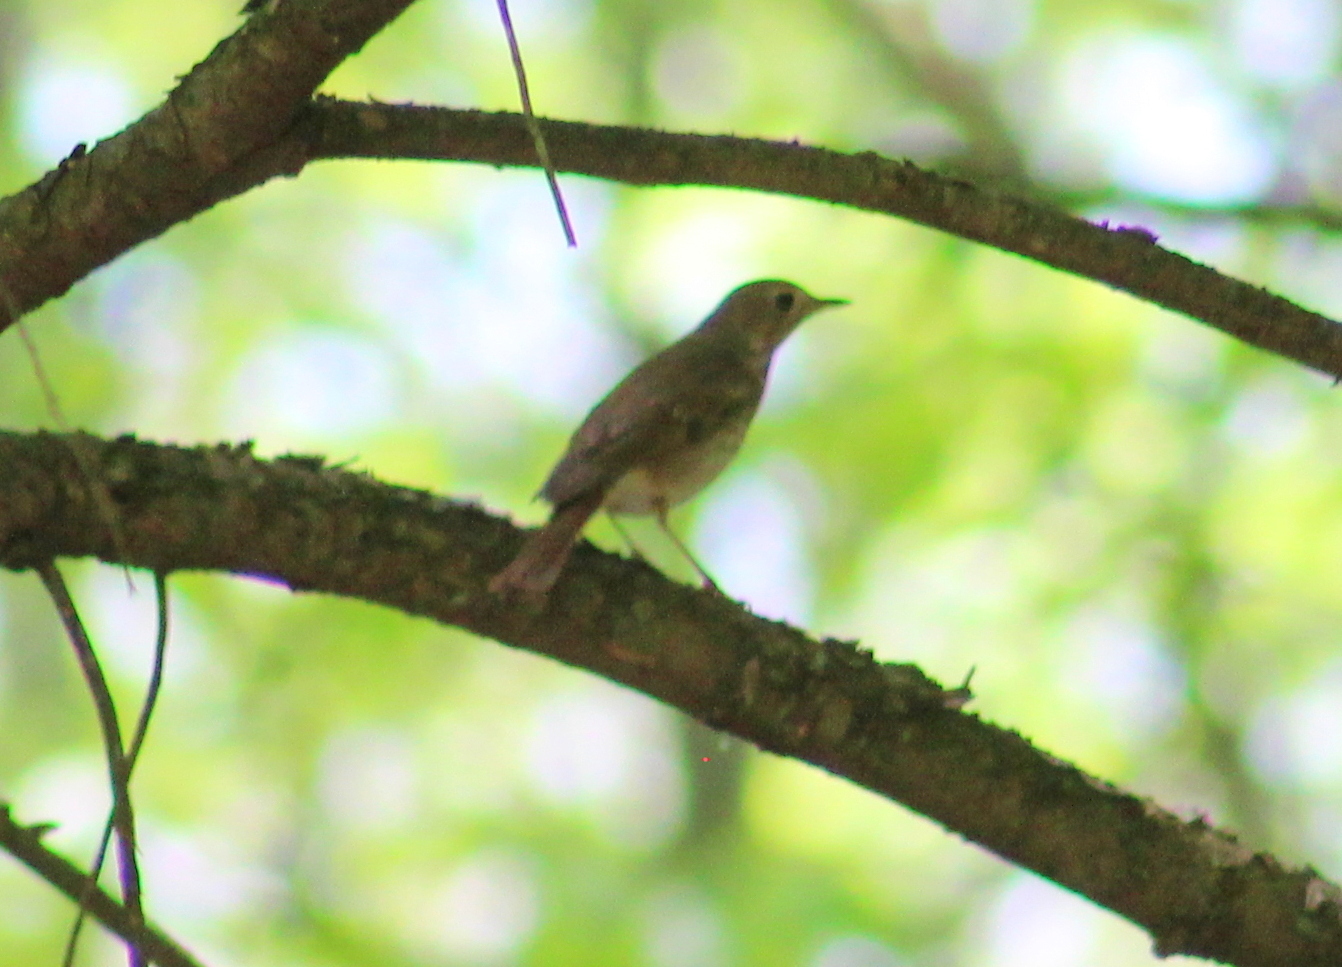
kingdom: Animalia
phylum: Chordata
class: Aves
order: Passeriformes
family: Turdidae
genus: Catharus
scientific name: Catharus guttatus
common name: Hermit thrush
